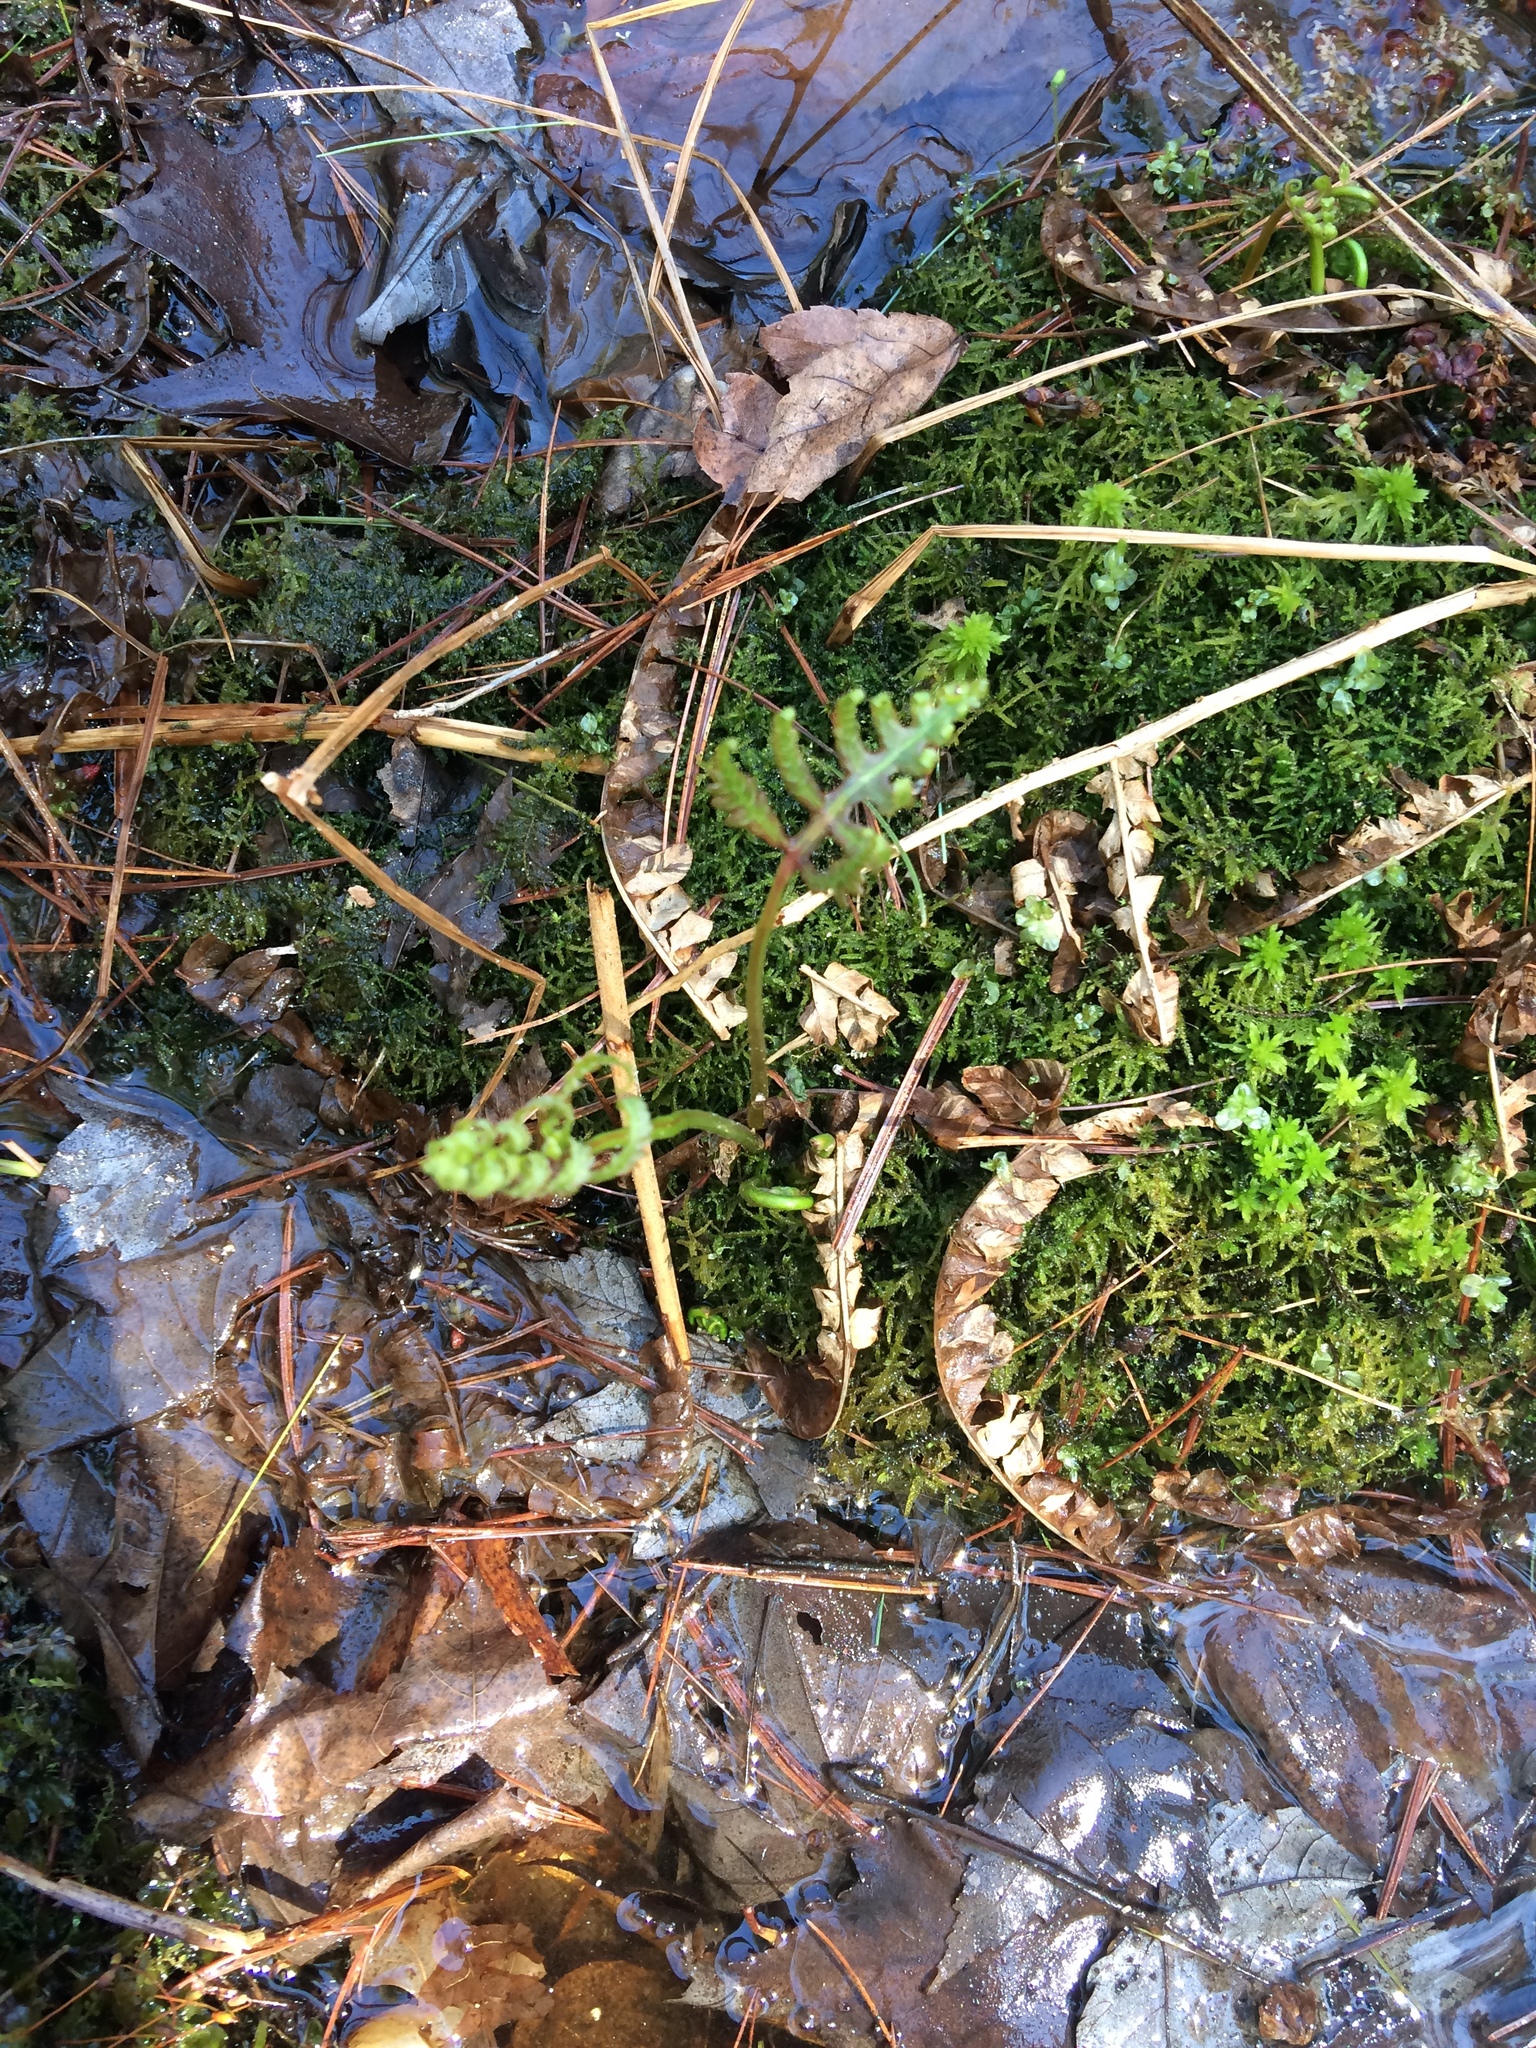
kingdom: Plantae
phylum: Tracheophyta
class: Polypodiopsida
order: Polypodiales
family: Onocleaceae
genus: Onoclea
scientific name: Onoclea sensibilis
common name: Sensitive fern
